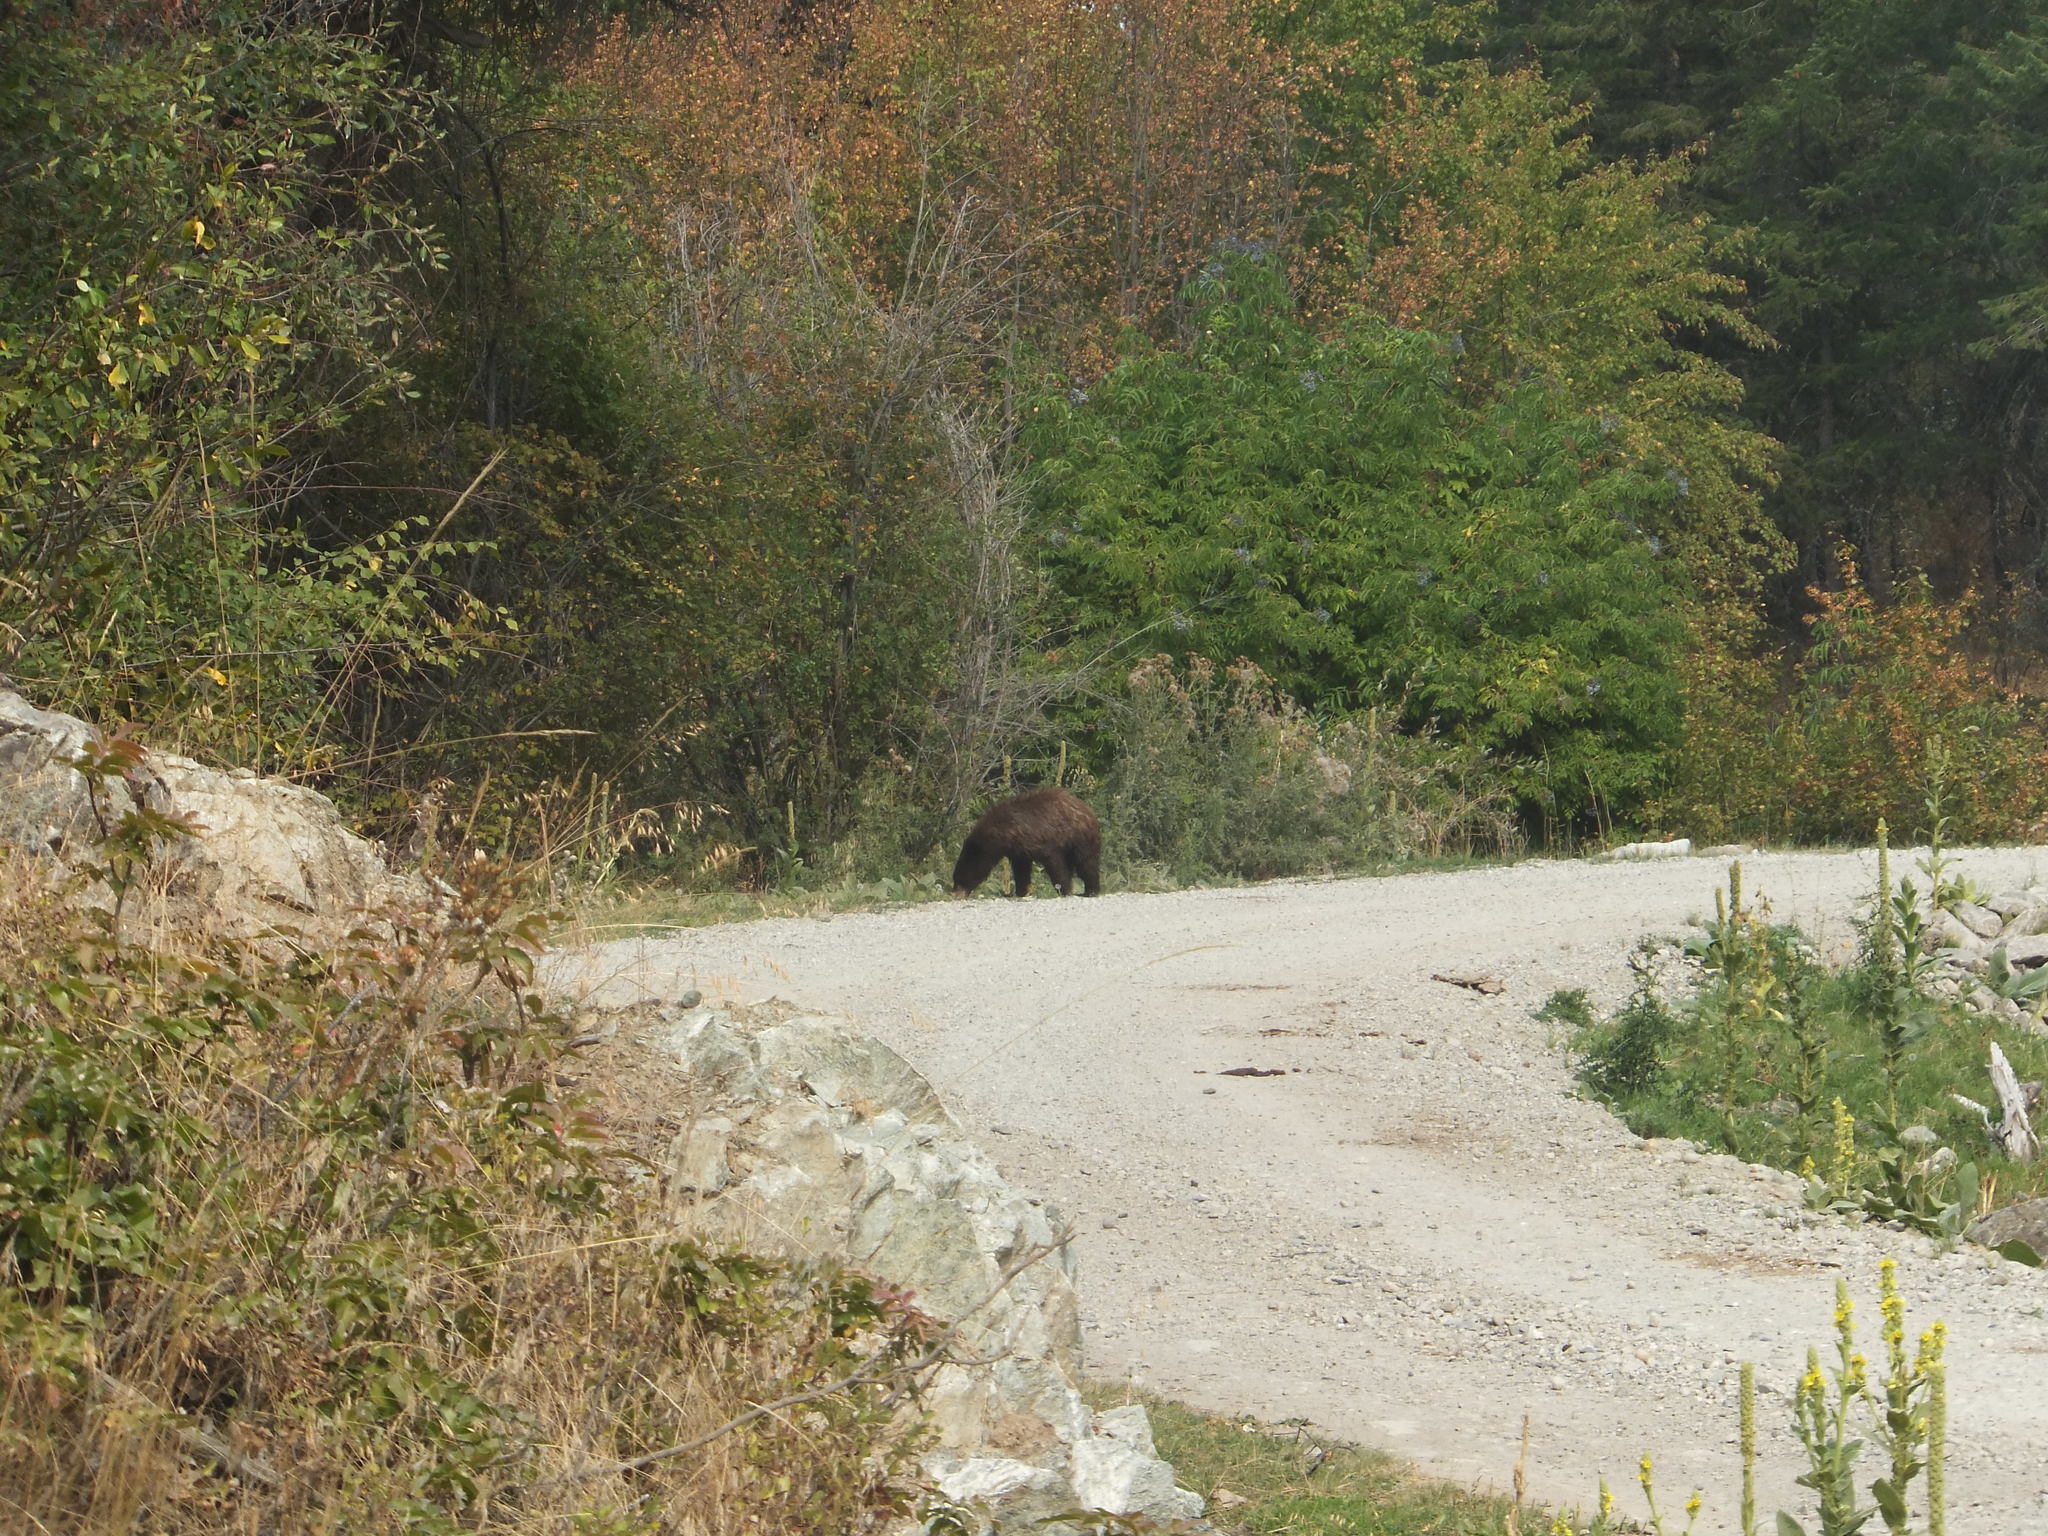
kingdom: Animalia
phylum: Chordata
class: Mammalia
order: Carnivora
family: Ursidae
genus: Ursus
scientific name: Ursus americanus
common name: American black bear
